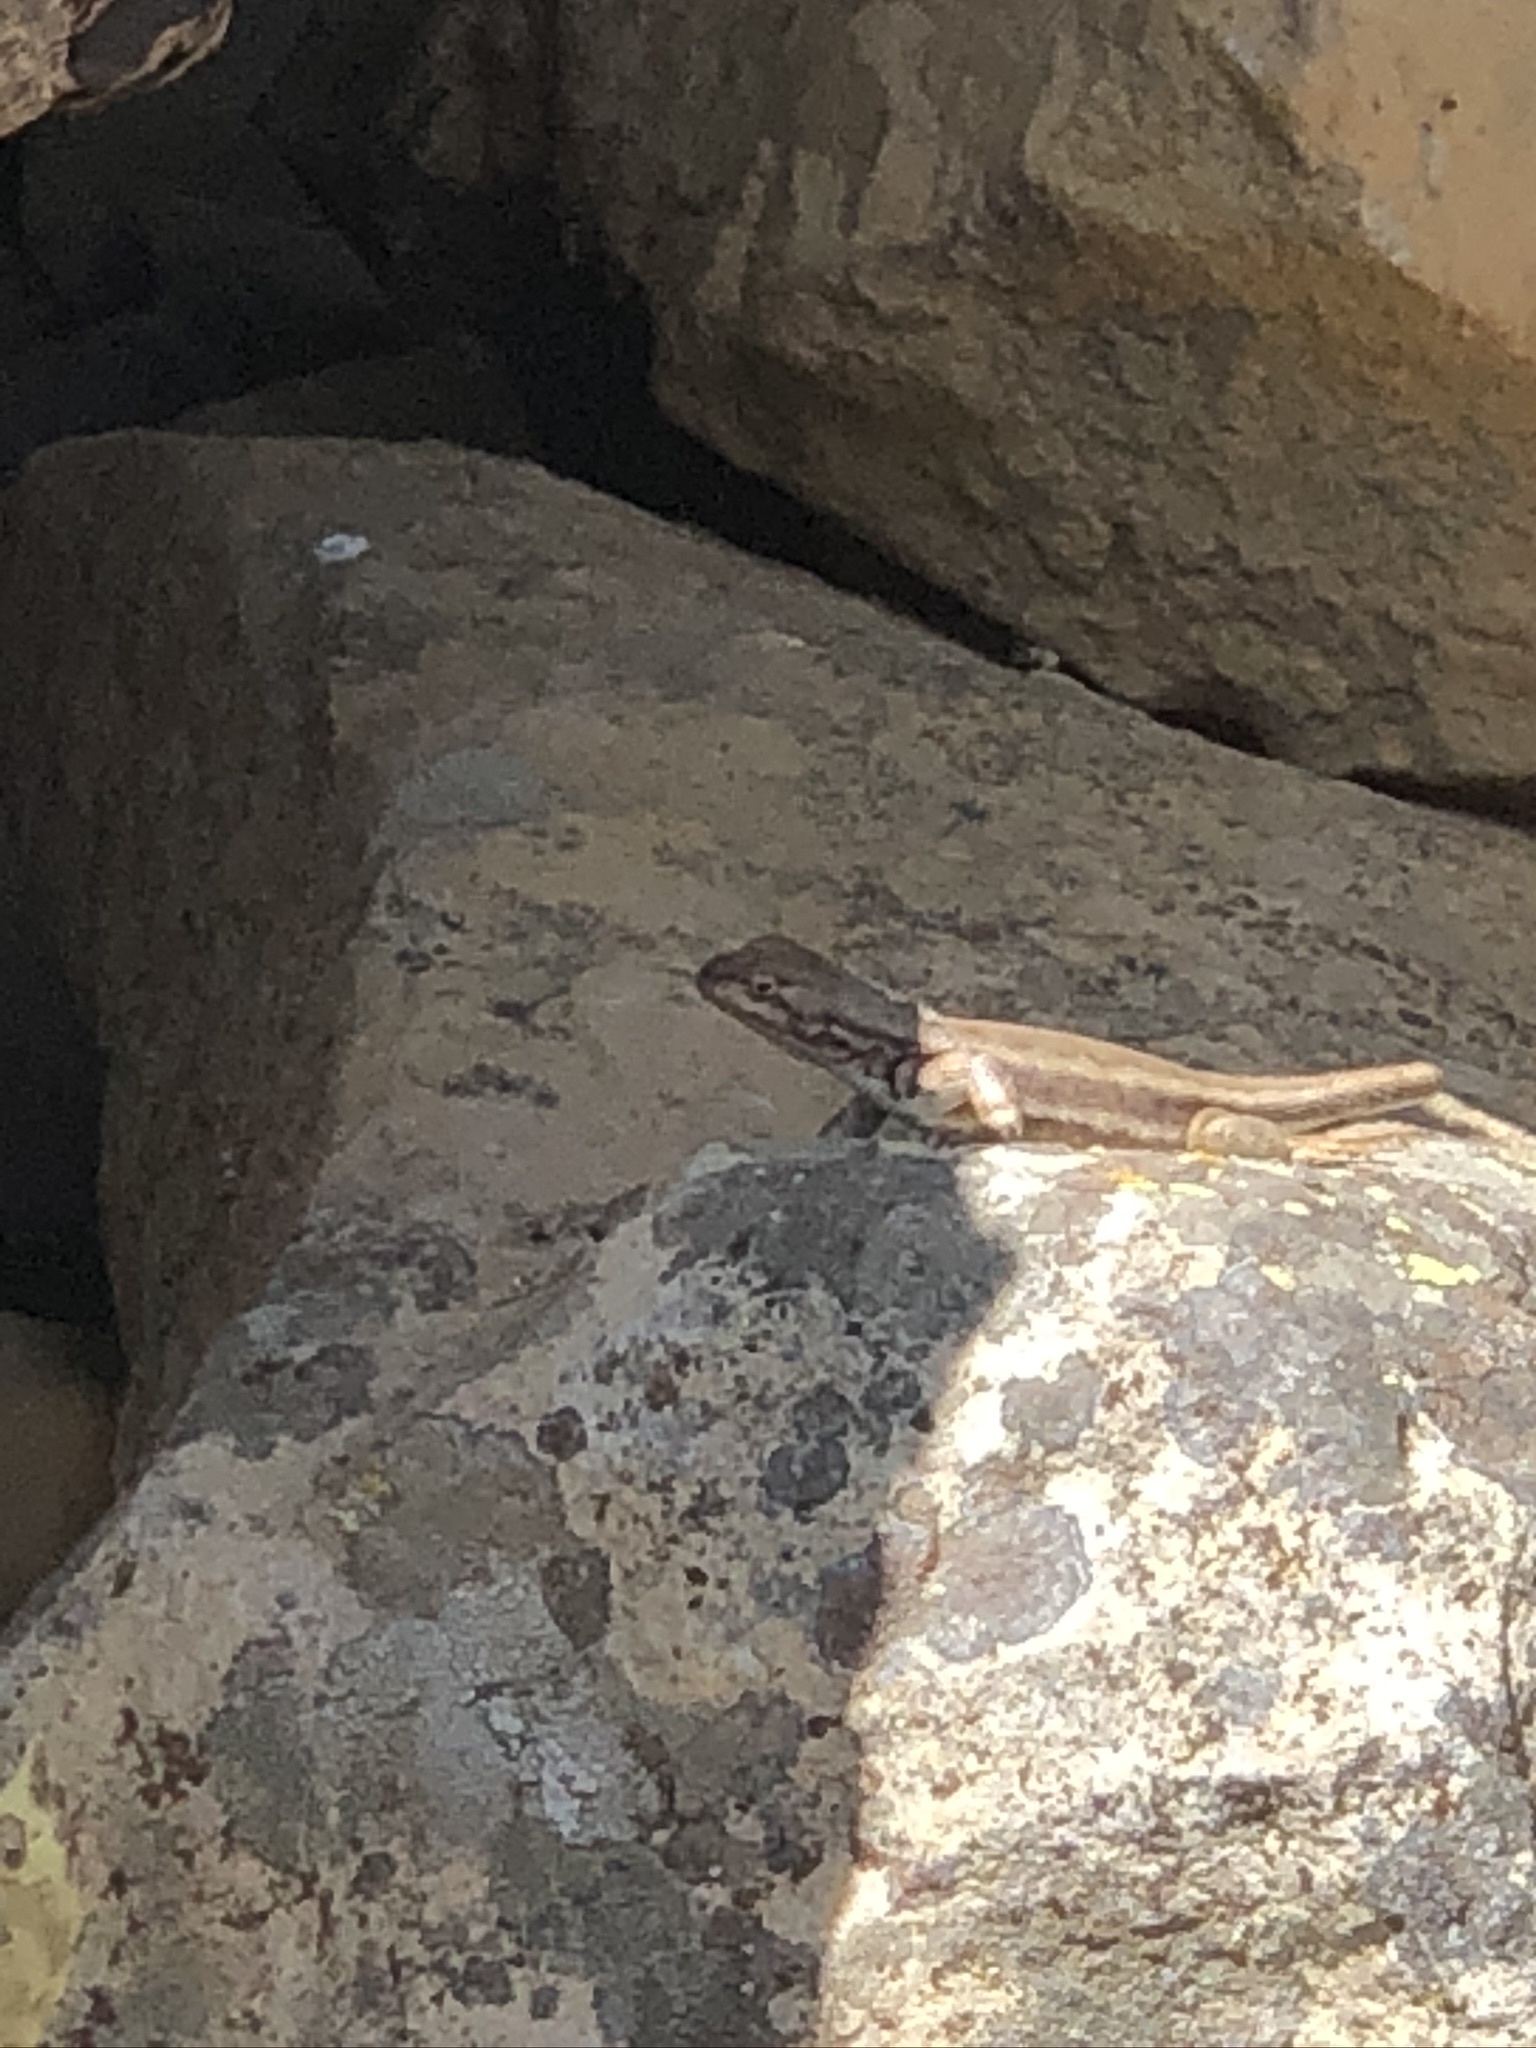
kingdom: Animalia
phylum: Chordata
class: Squamata
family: Phrynosomatidae
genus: Sceloporus
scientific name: Sceloporus graciosus
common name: Sagebrush lizard
